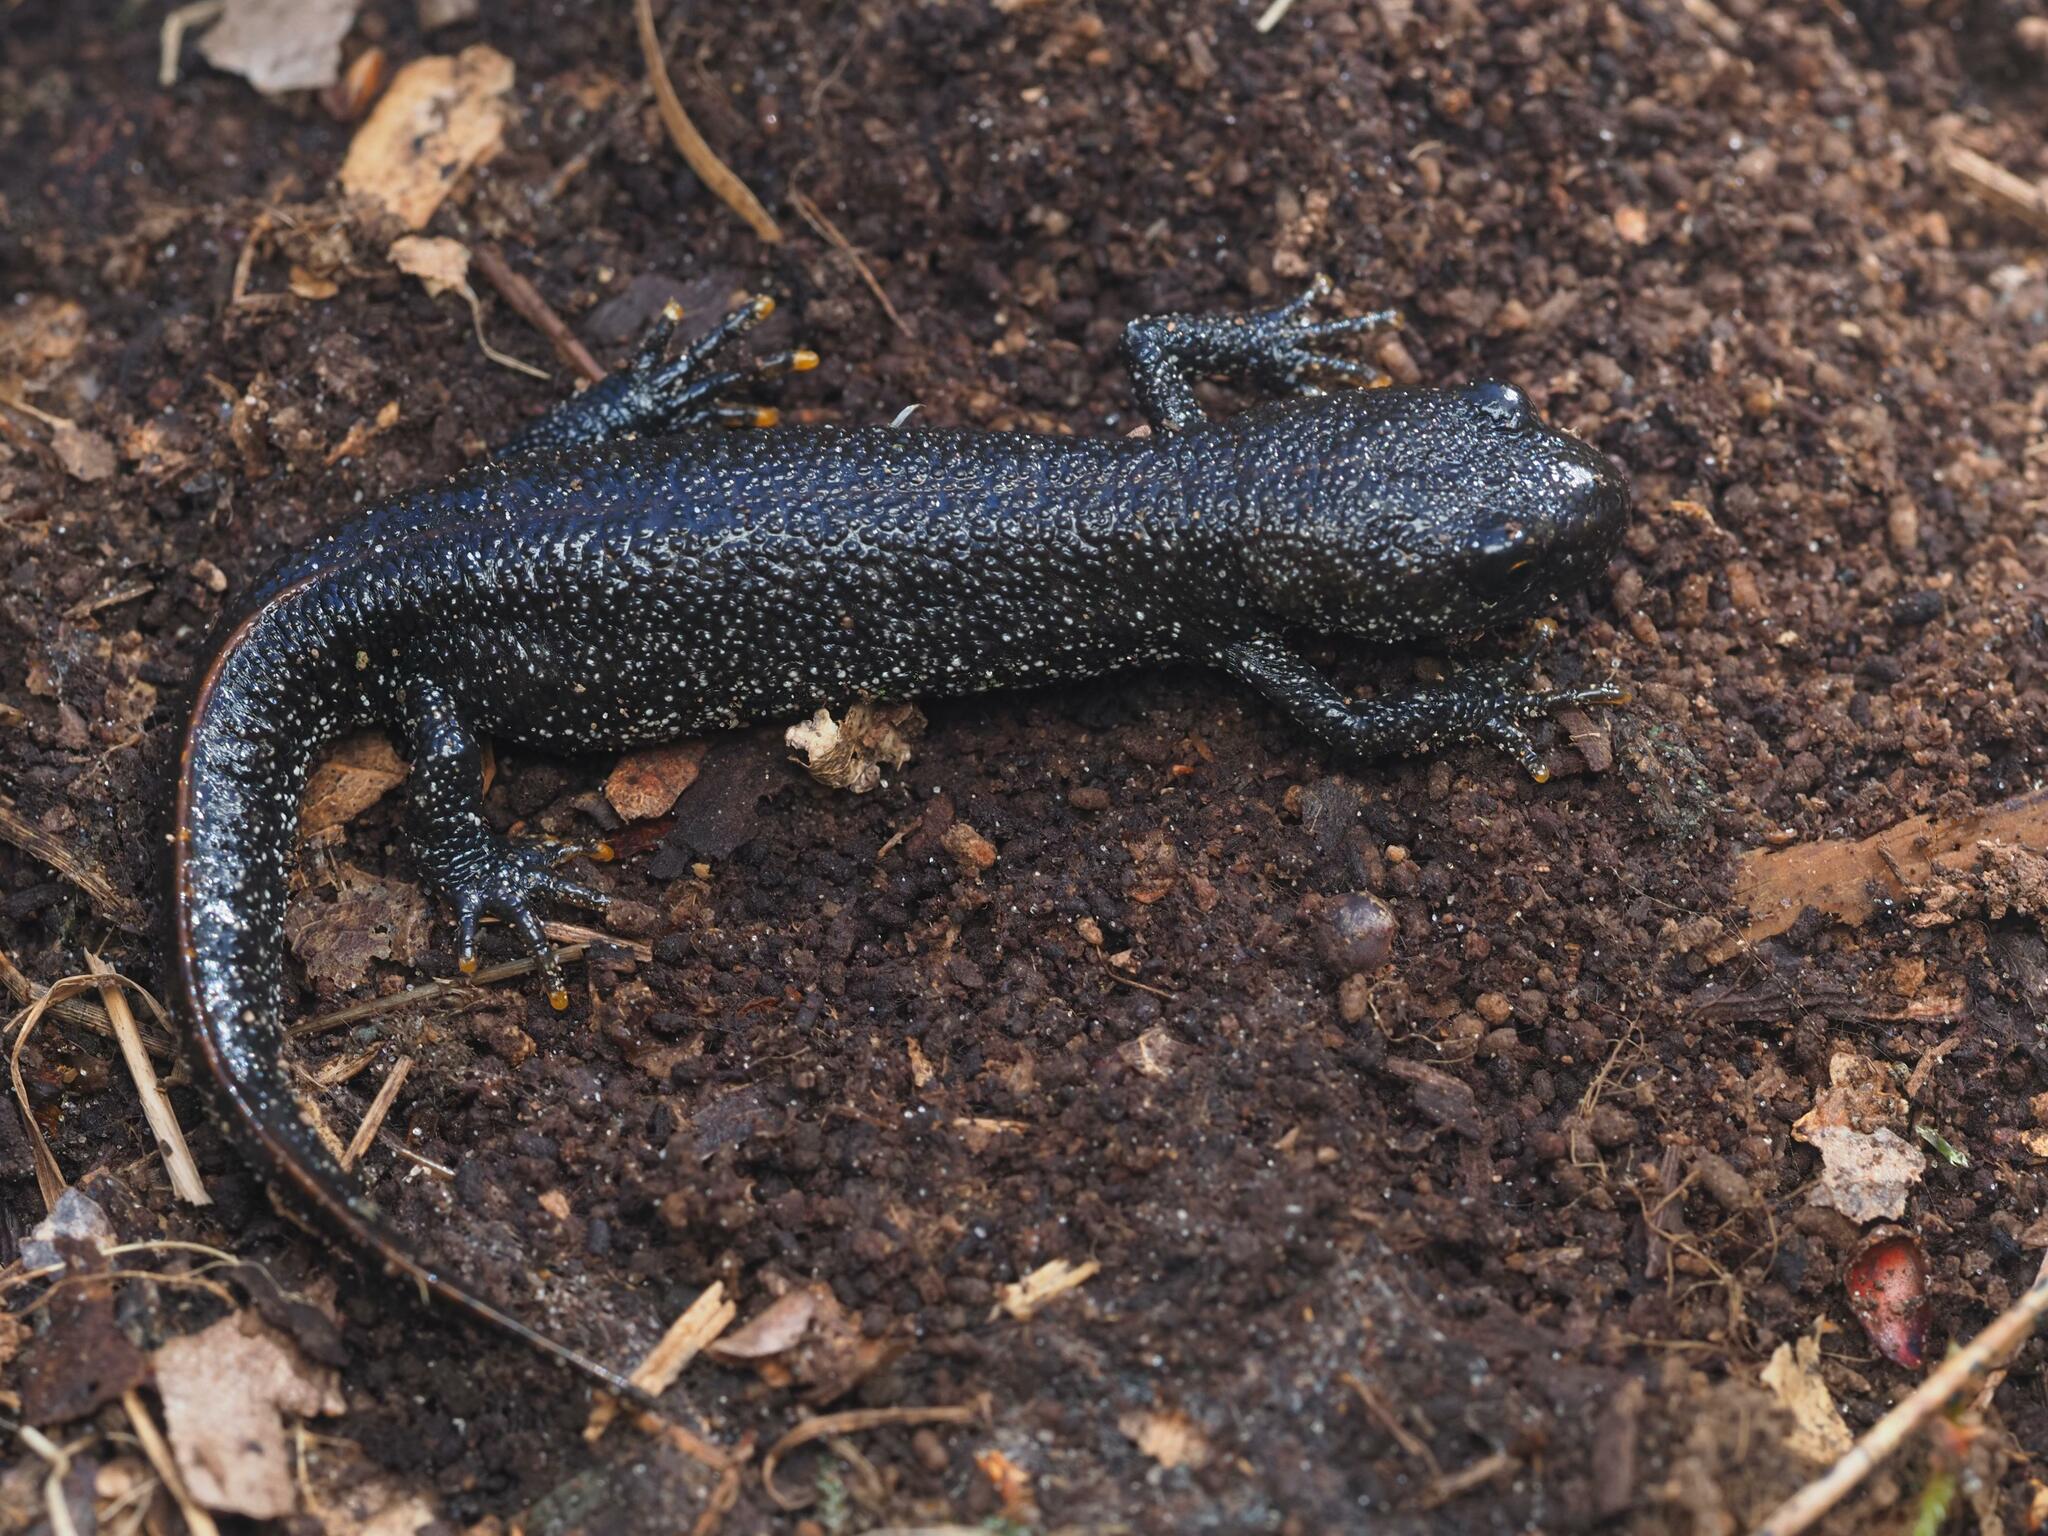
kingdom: Animalia
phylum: Chordata
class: Amphibia
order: Caudata
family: Salamandridae
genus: Triturus
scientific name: Triturus cristatus
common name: Crested newt
